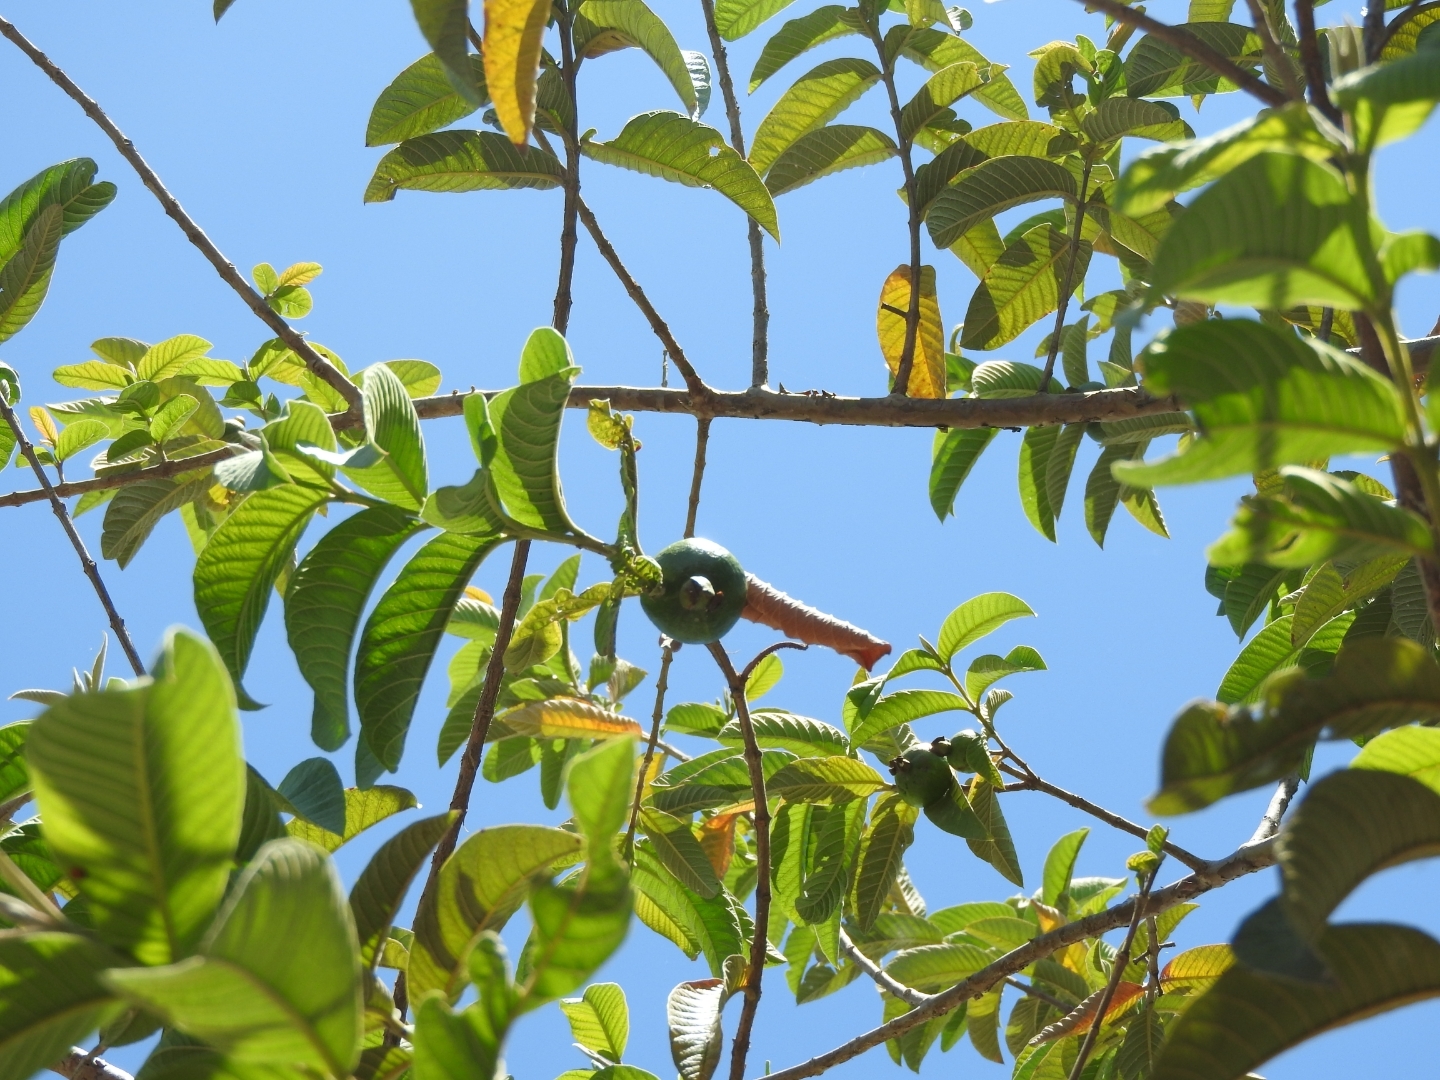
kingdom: Plantae
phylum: Tracheophyta
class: Magnoliopsida
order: Myrtales
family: Myrtaceae
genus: Psidium
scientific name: Psidium guajava
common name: Guava
